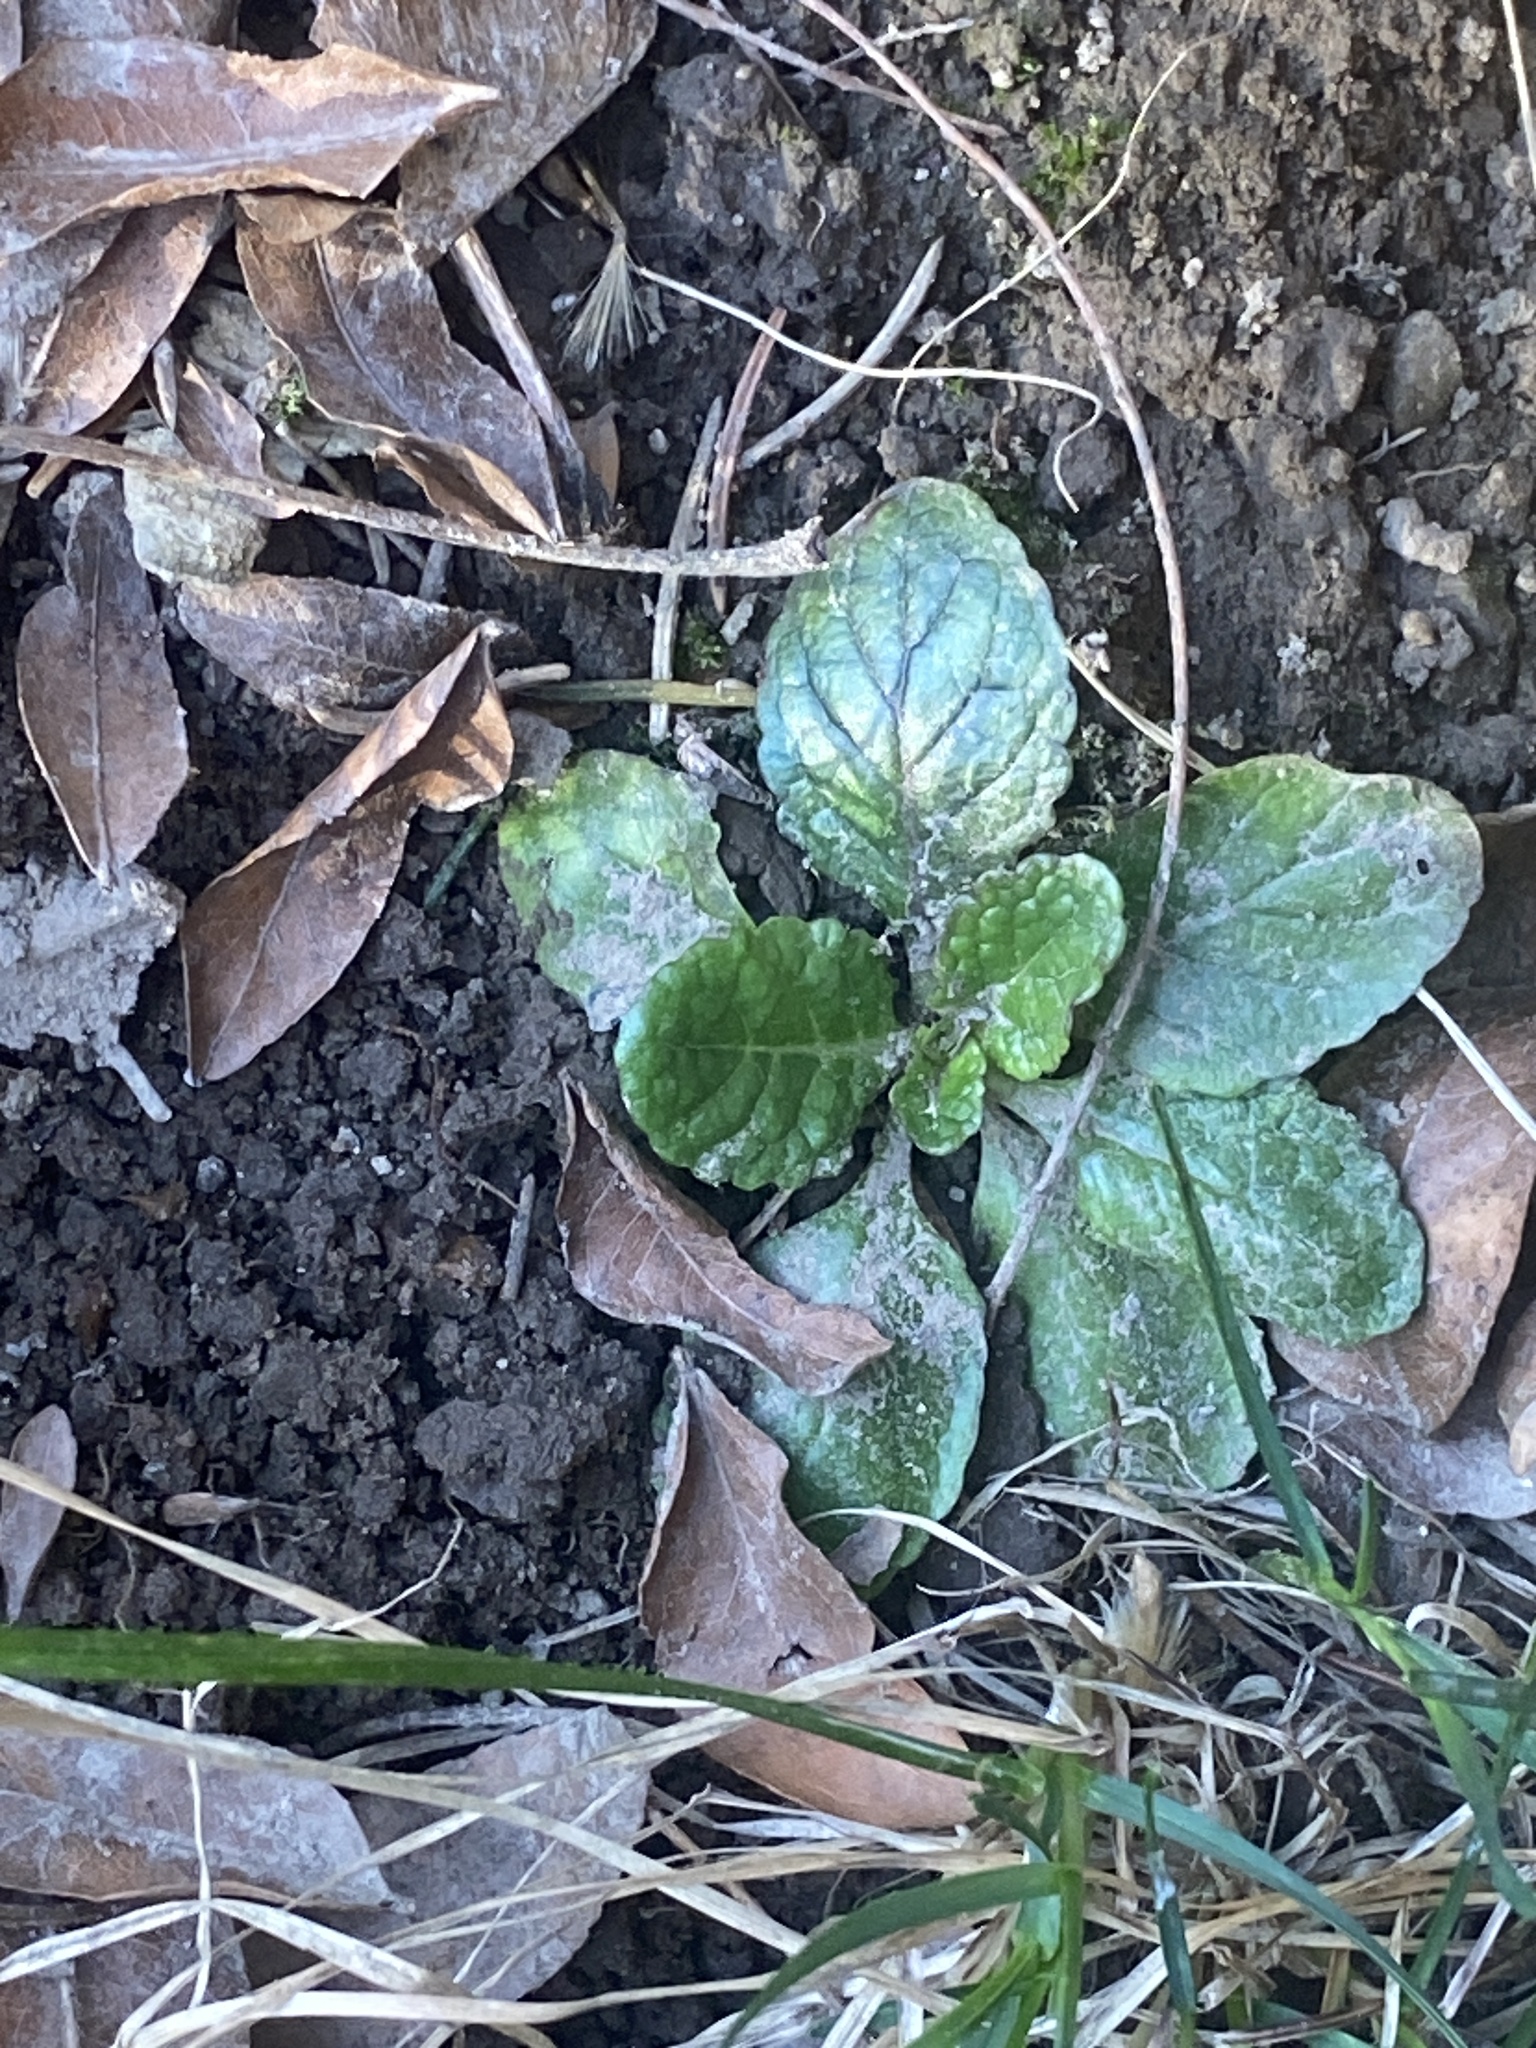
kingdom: Plantae
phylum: Tracheophyta
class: Magnoliopsida
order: Lamiales
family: Lamiaceae
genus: Ajuga
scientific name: Ajuga reptans
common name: Bugle
